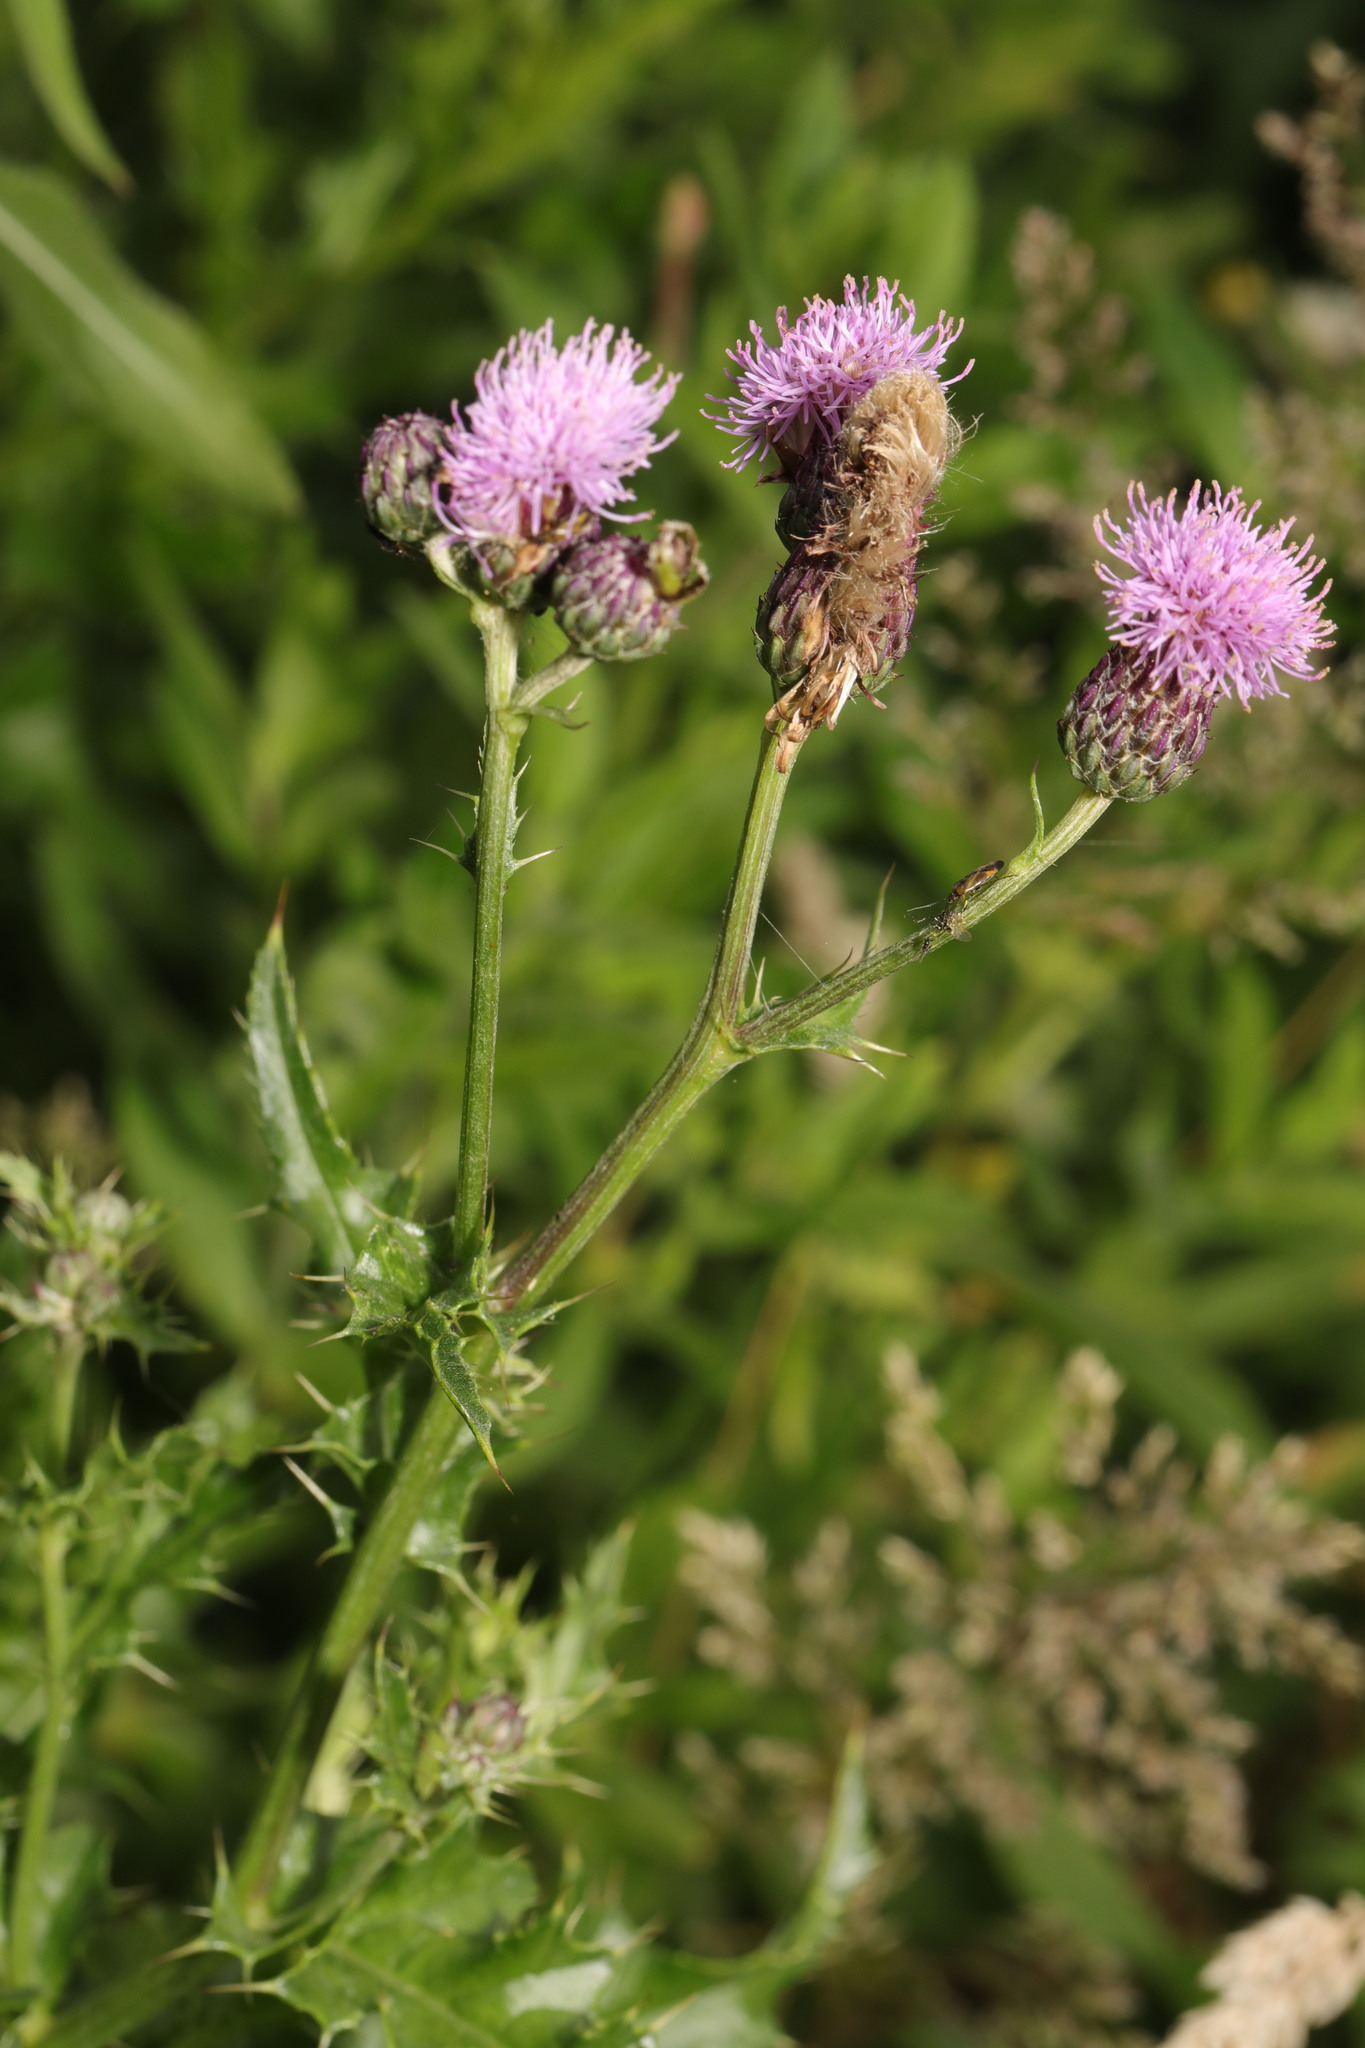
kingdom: Plantae
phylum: Tracheophyta
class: Magnoliopsida
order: Asterales
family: Asteraceae
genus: Cirsium
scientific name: Cirsium arvense
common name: Creeping thistle
